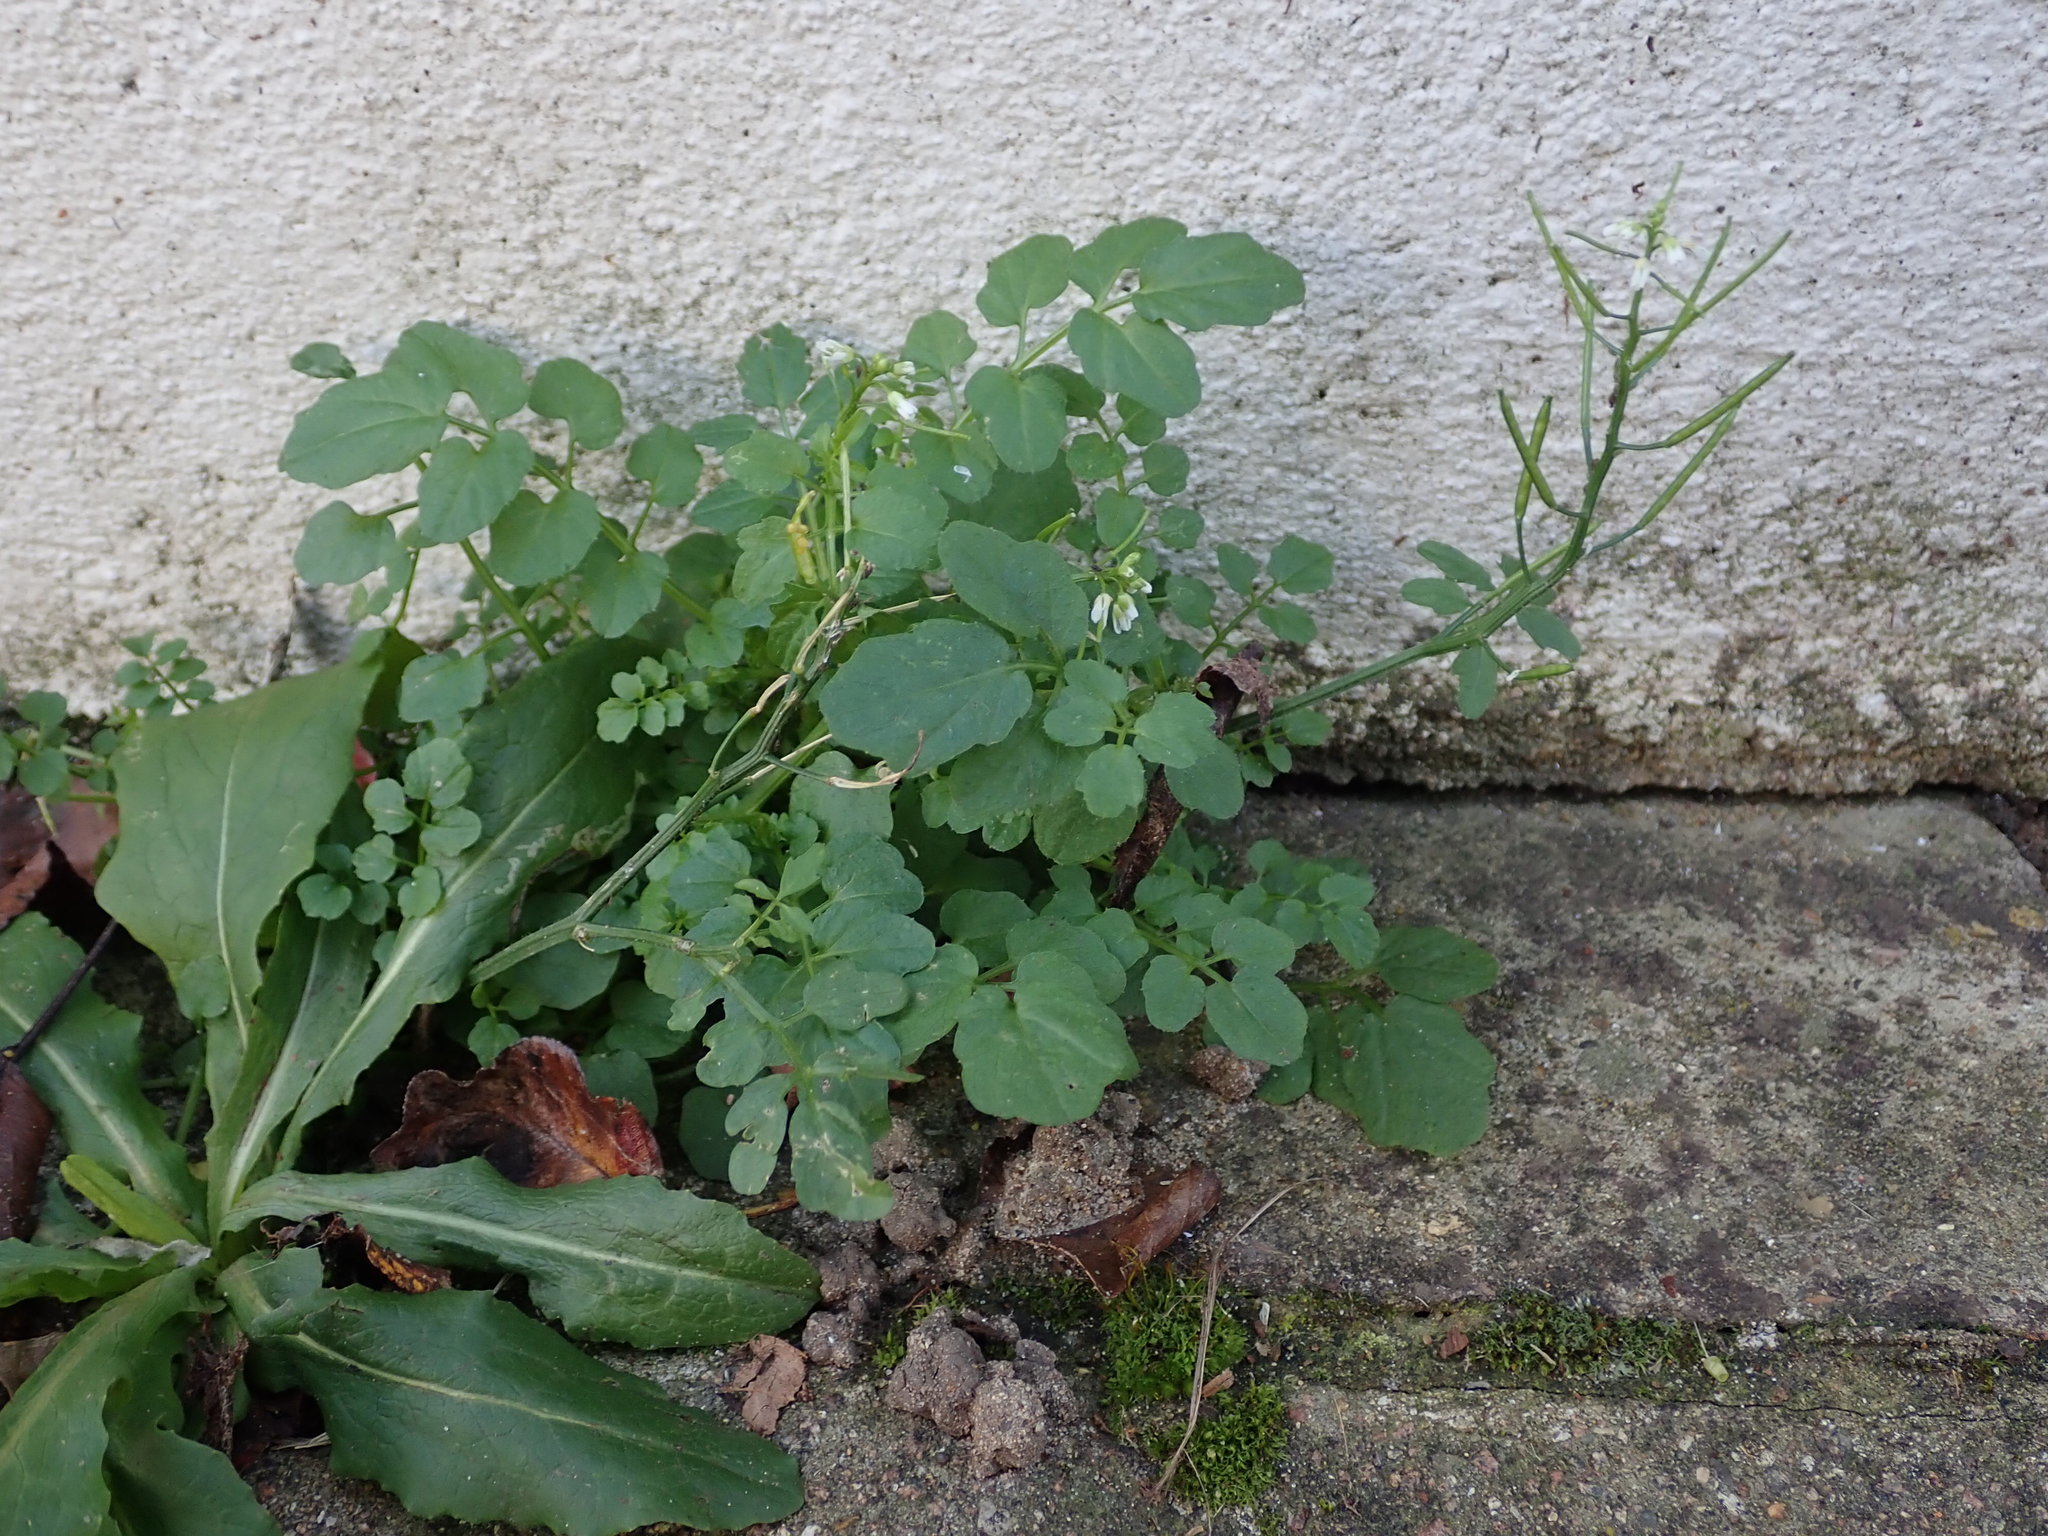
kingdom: Plantae
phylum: Tracheophyta
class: Magnoliopsida
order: Brassicales
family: Brassicaceae
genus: Cardamine
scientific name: Cardamine flexuosa
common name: Woodland bittercress
